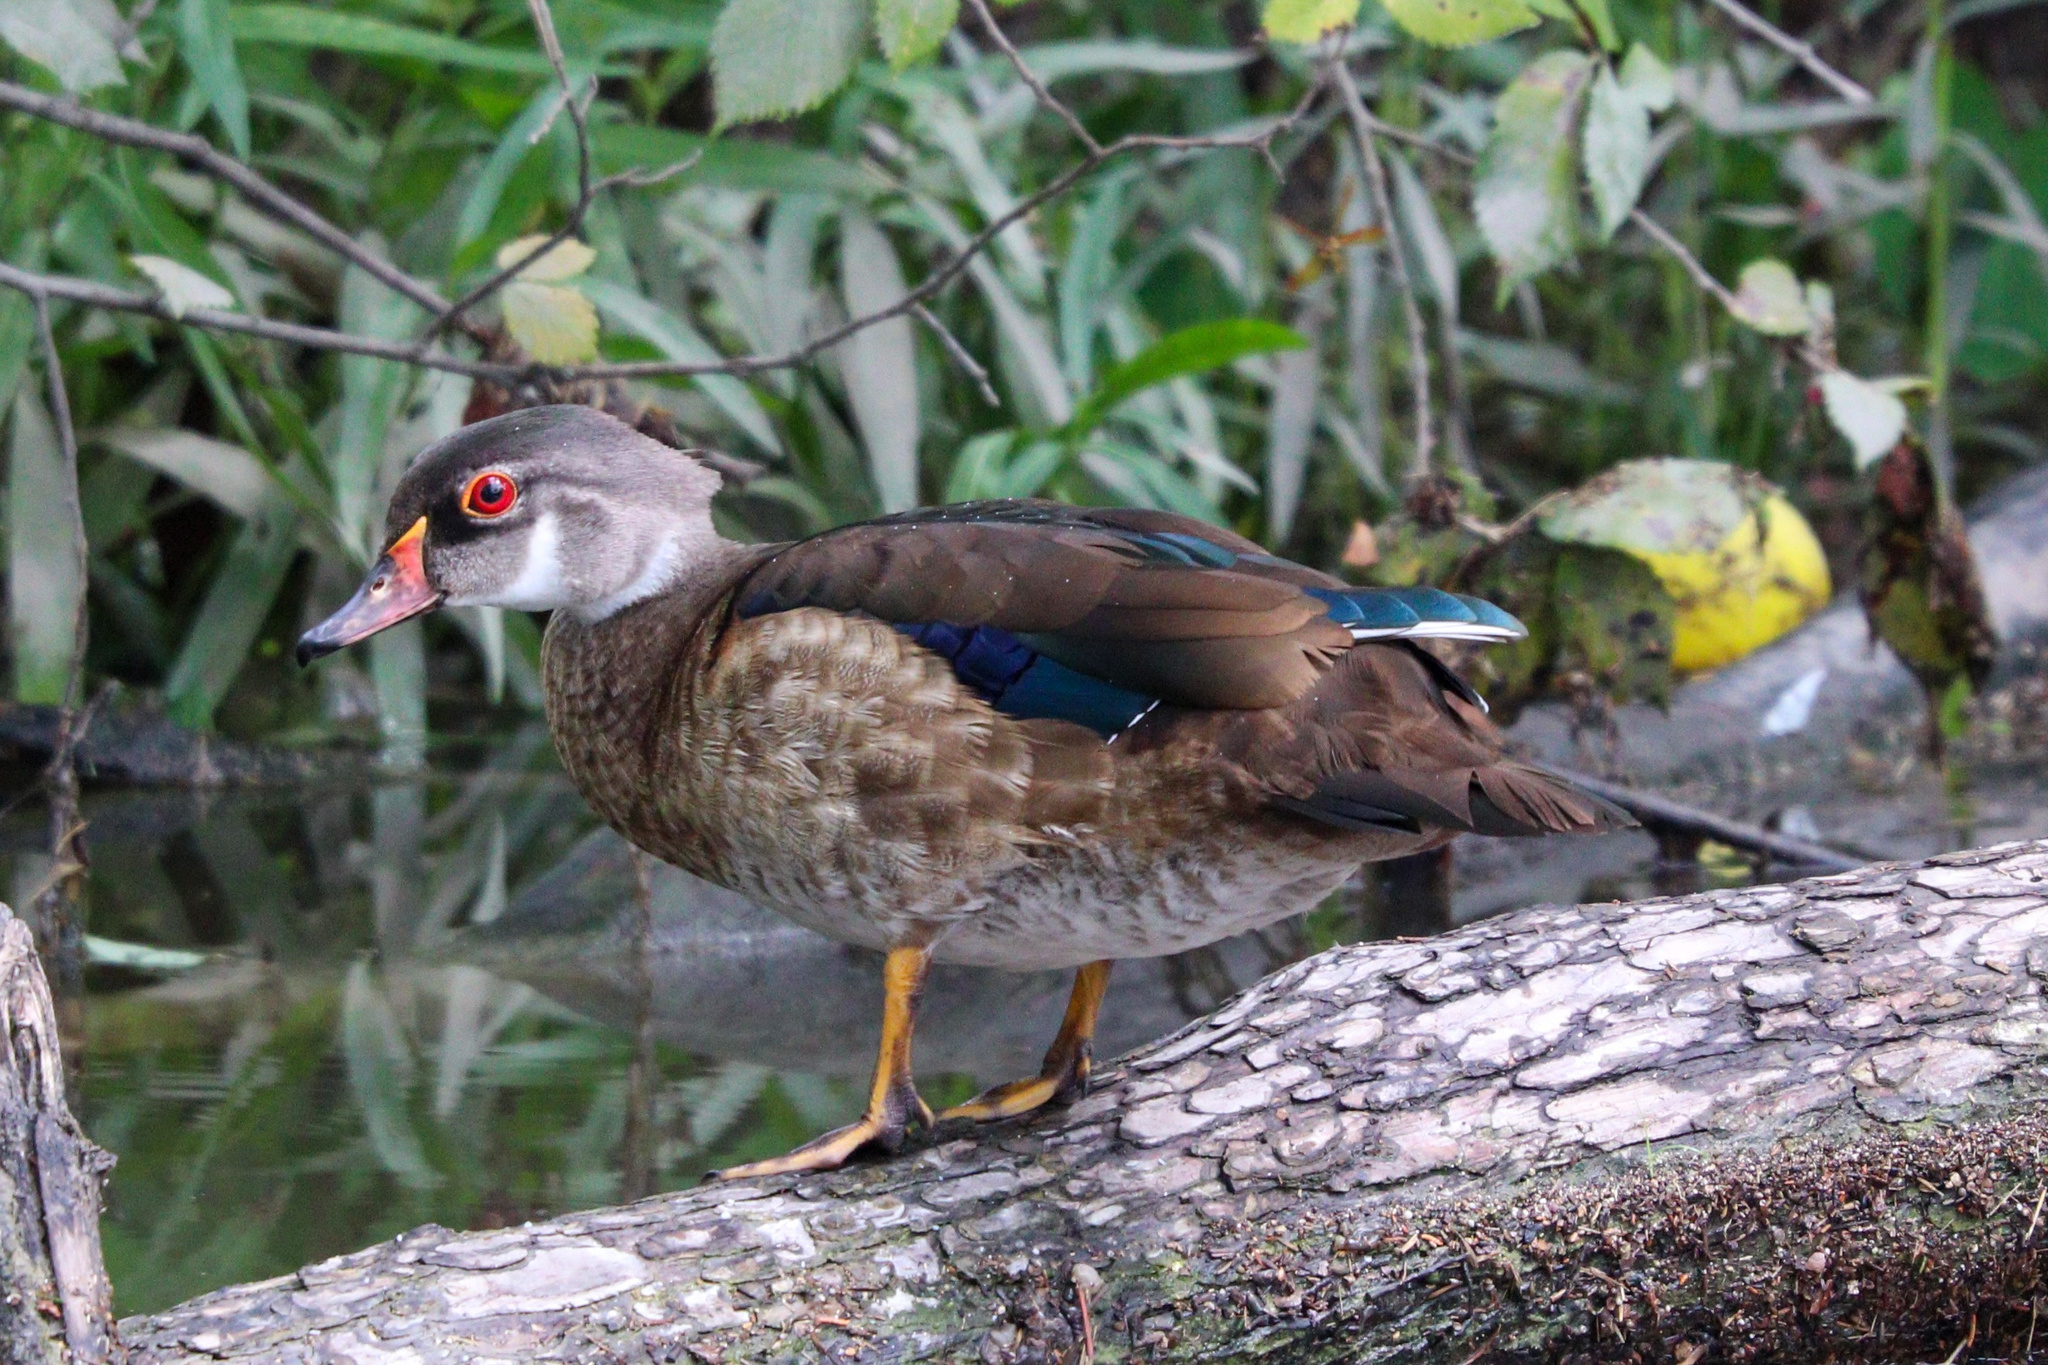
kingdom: Animalia
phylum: Chordata
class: Aves
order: Anseriformes
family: Anatidae
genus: Aix
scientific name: Aix sponsa
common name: Wood duck
